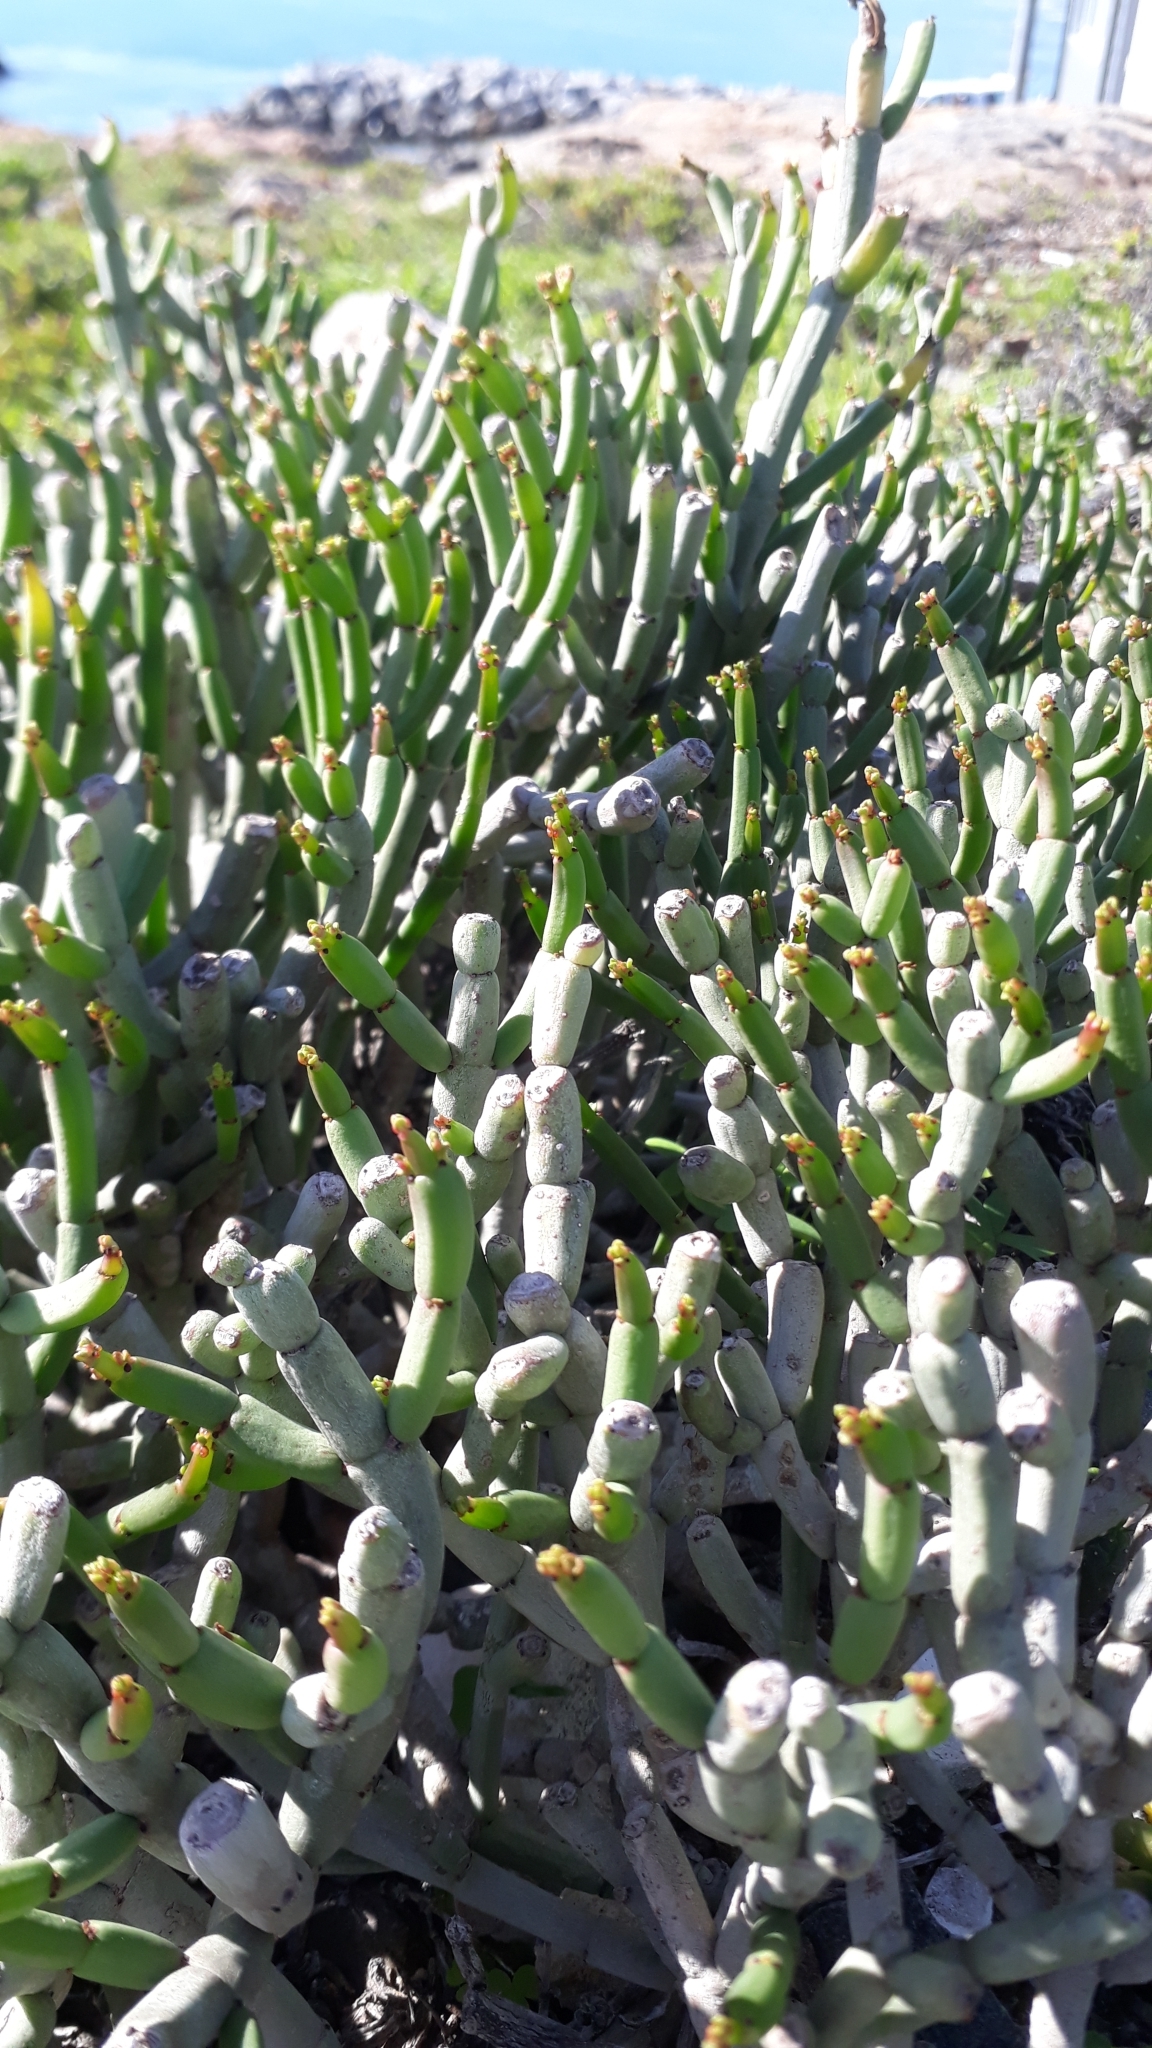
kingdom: Plantae
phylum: Tracheophyta
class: Magnoliopsida
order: Malpighiales
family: Euphorbiaceae
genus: Euphorbia
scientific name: Euphorbia burmanni
